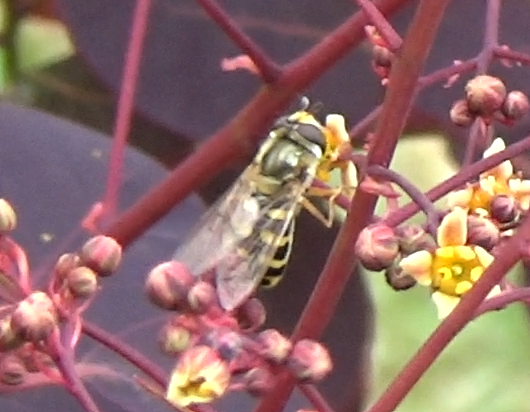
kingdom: Animalia
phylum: Arthropoda
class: Insecta
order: Diptera
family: Syrphidae
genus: Eupeodes
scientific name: Eupeodes corollae
